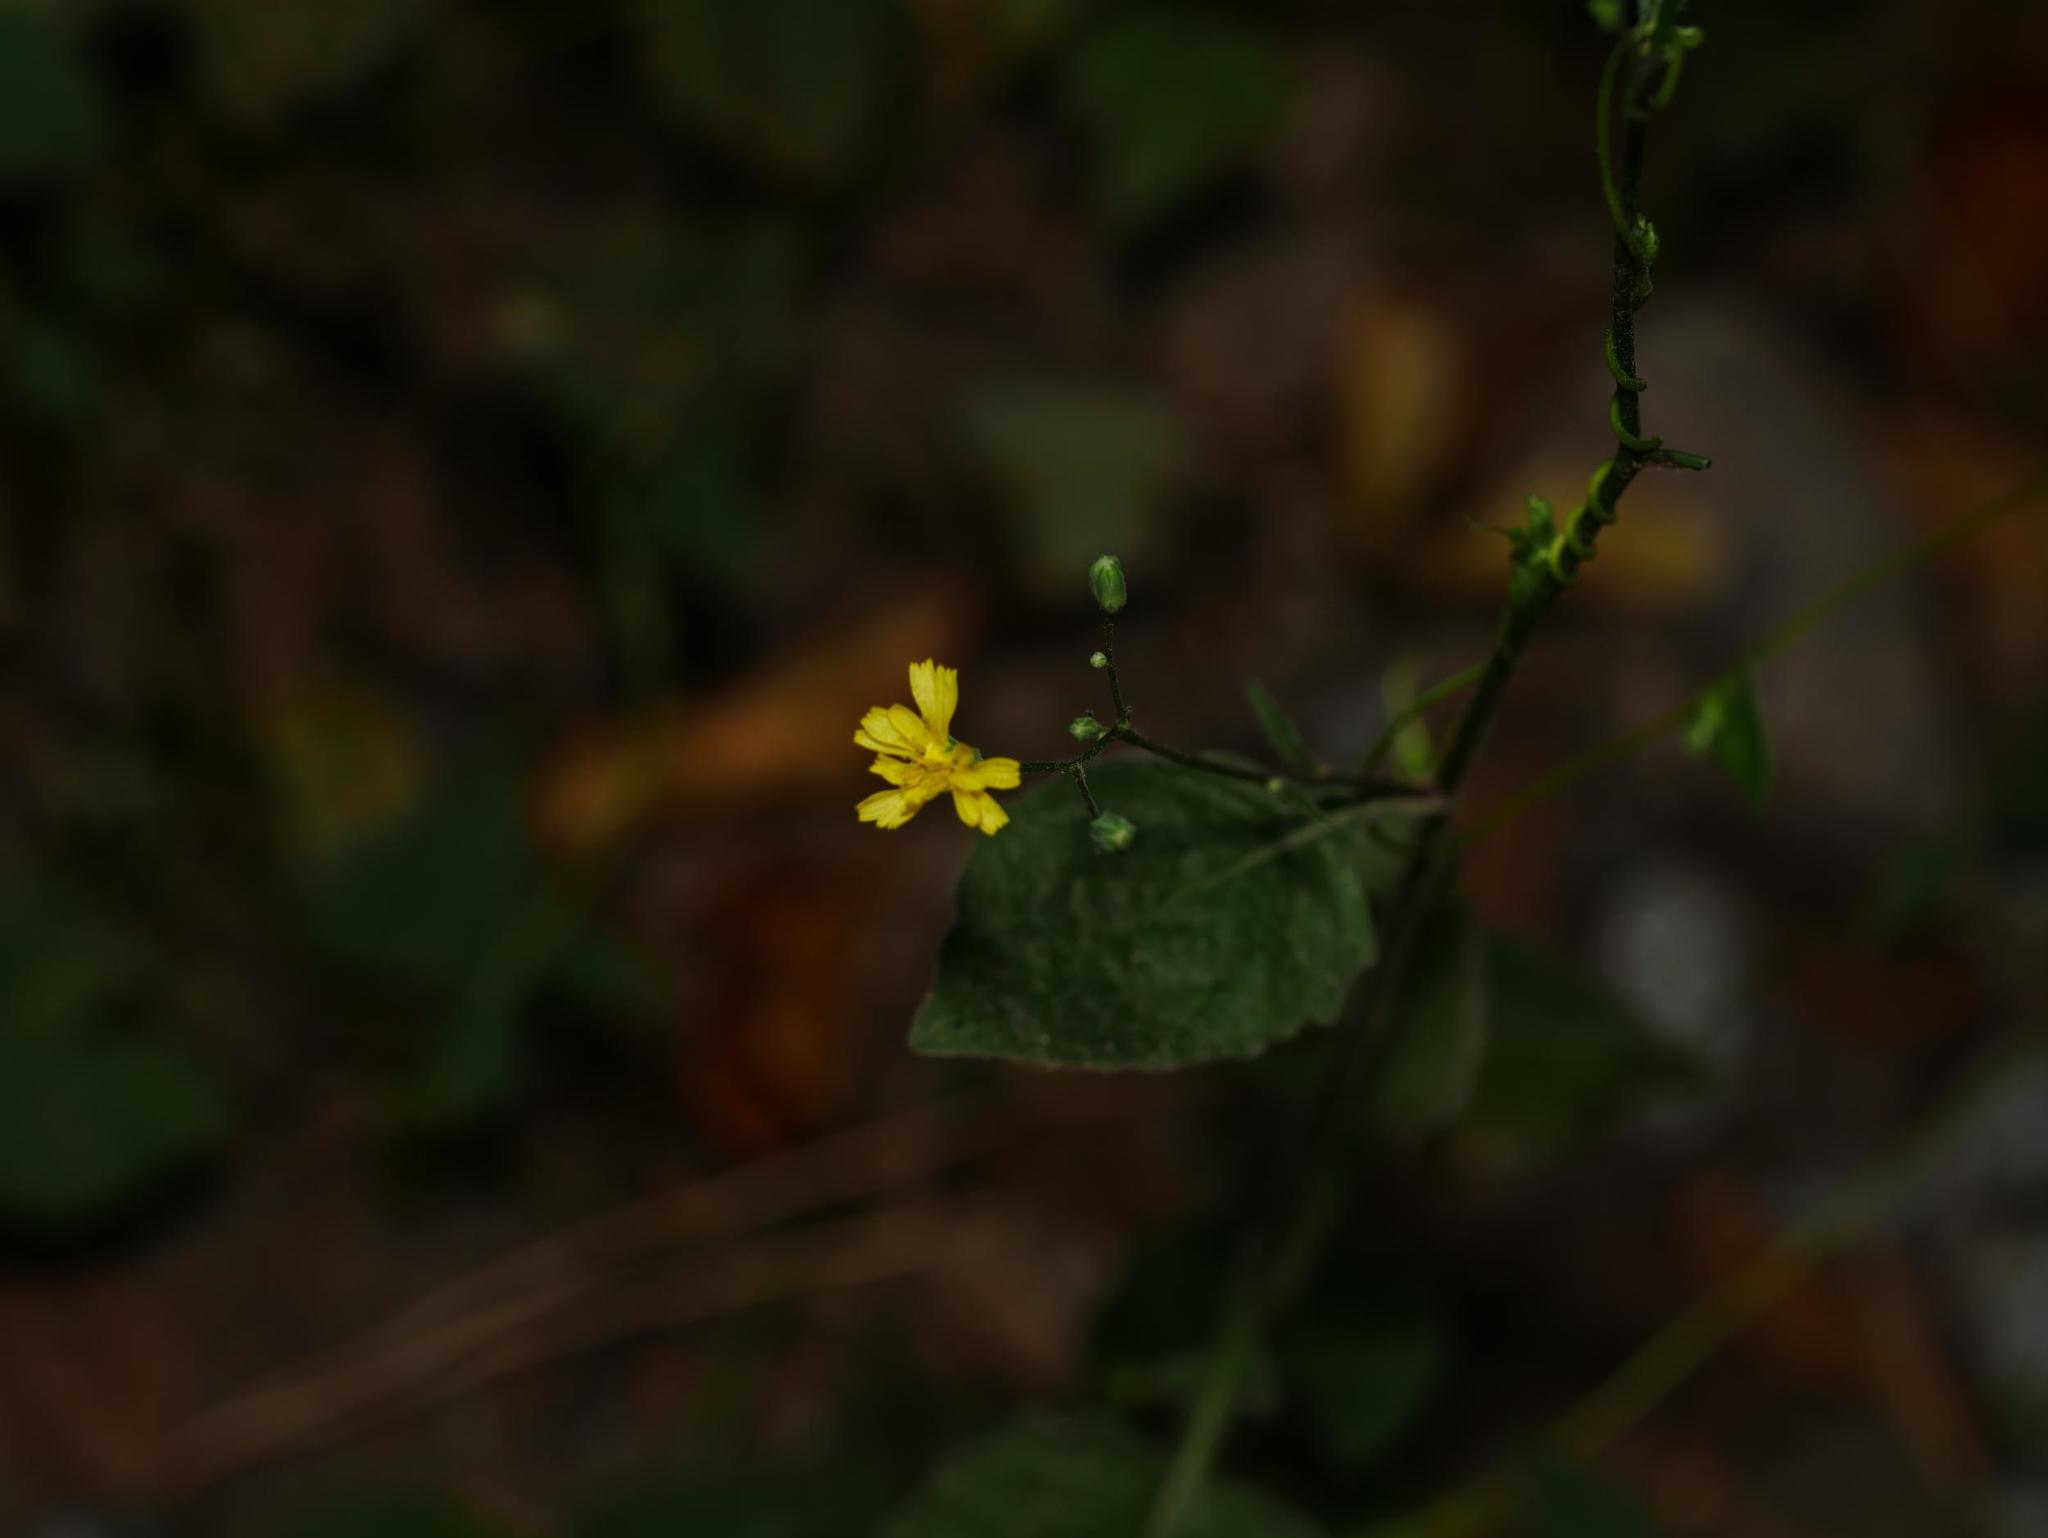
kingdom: Plantae
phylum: Tracheophyta
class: Magnoliopsida
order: Asterales
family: Asteraceae
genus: Lapsana
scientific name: Lapsana communis
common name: Nipplewort
